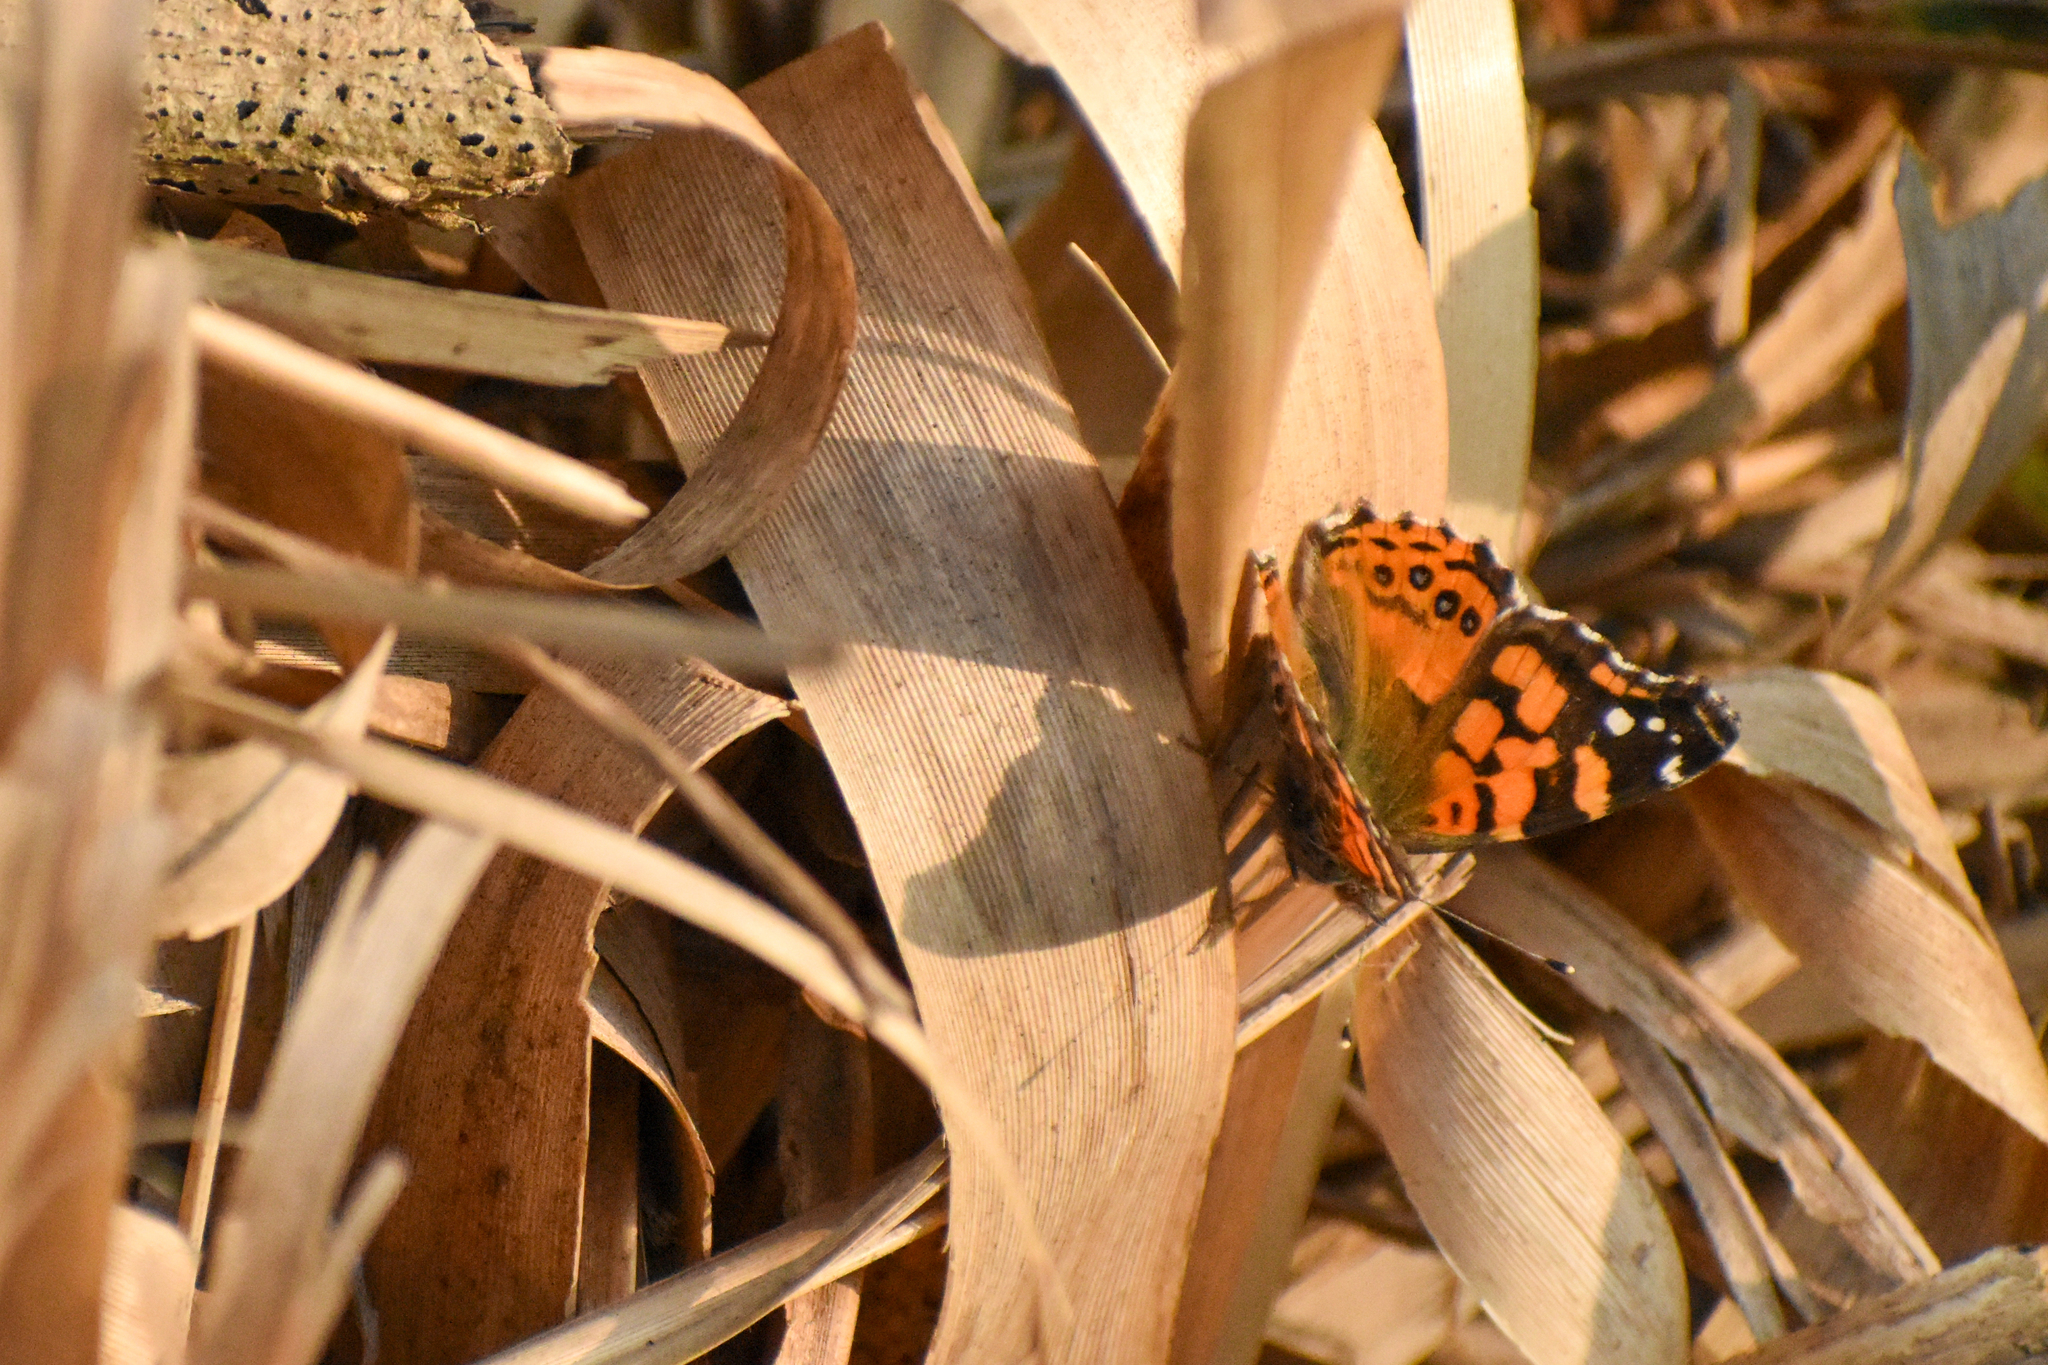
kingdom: Animalia
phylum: Arthropoda
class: Insecta
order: Lepidoptera
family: Nymphalidae
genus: Vanessa
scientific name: Vanessa carye
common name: Subtropical lady
